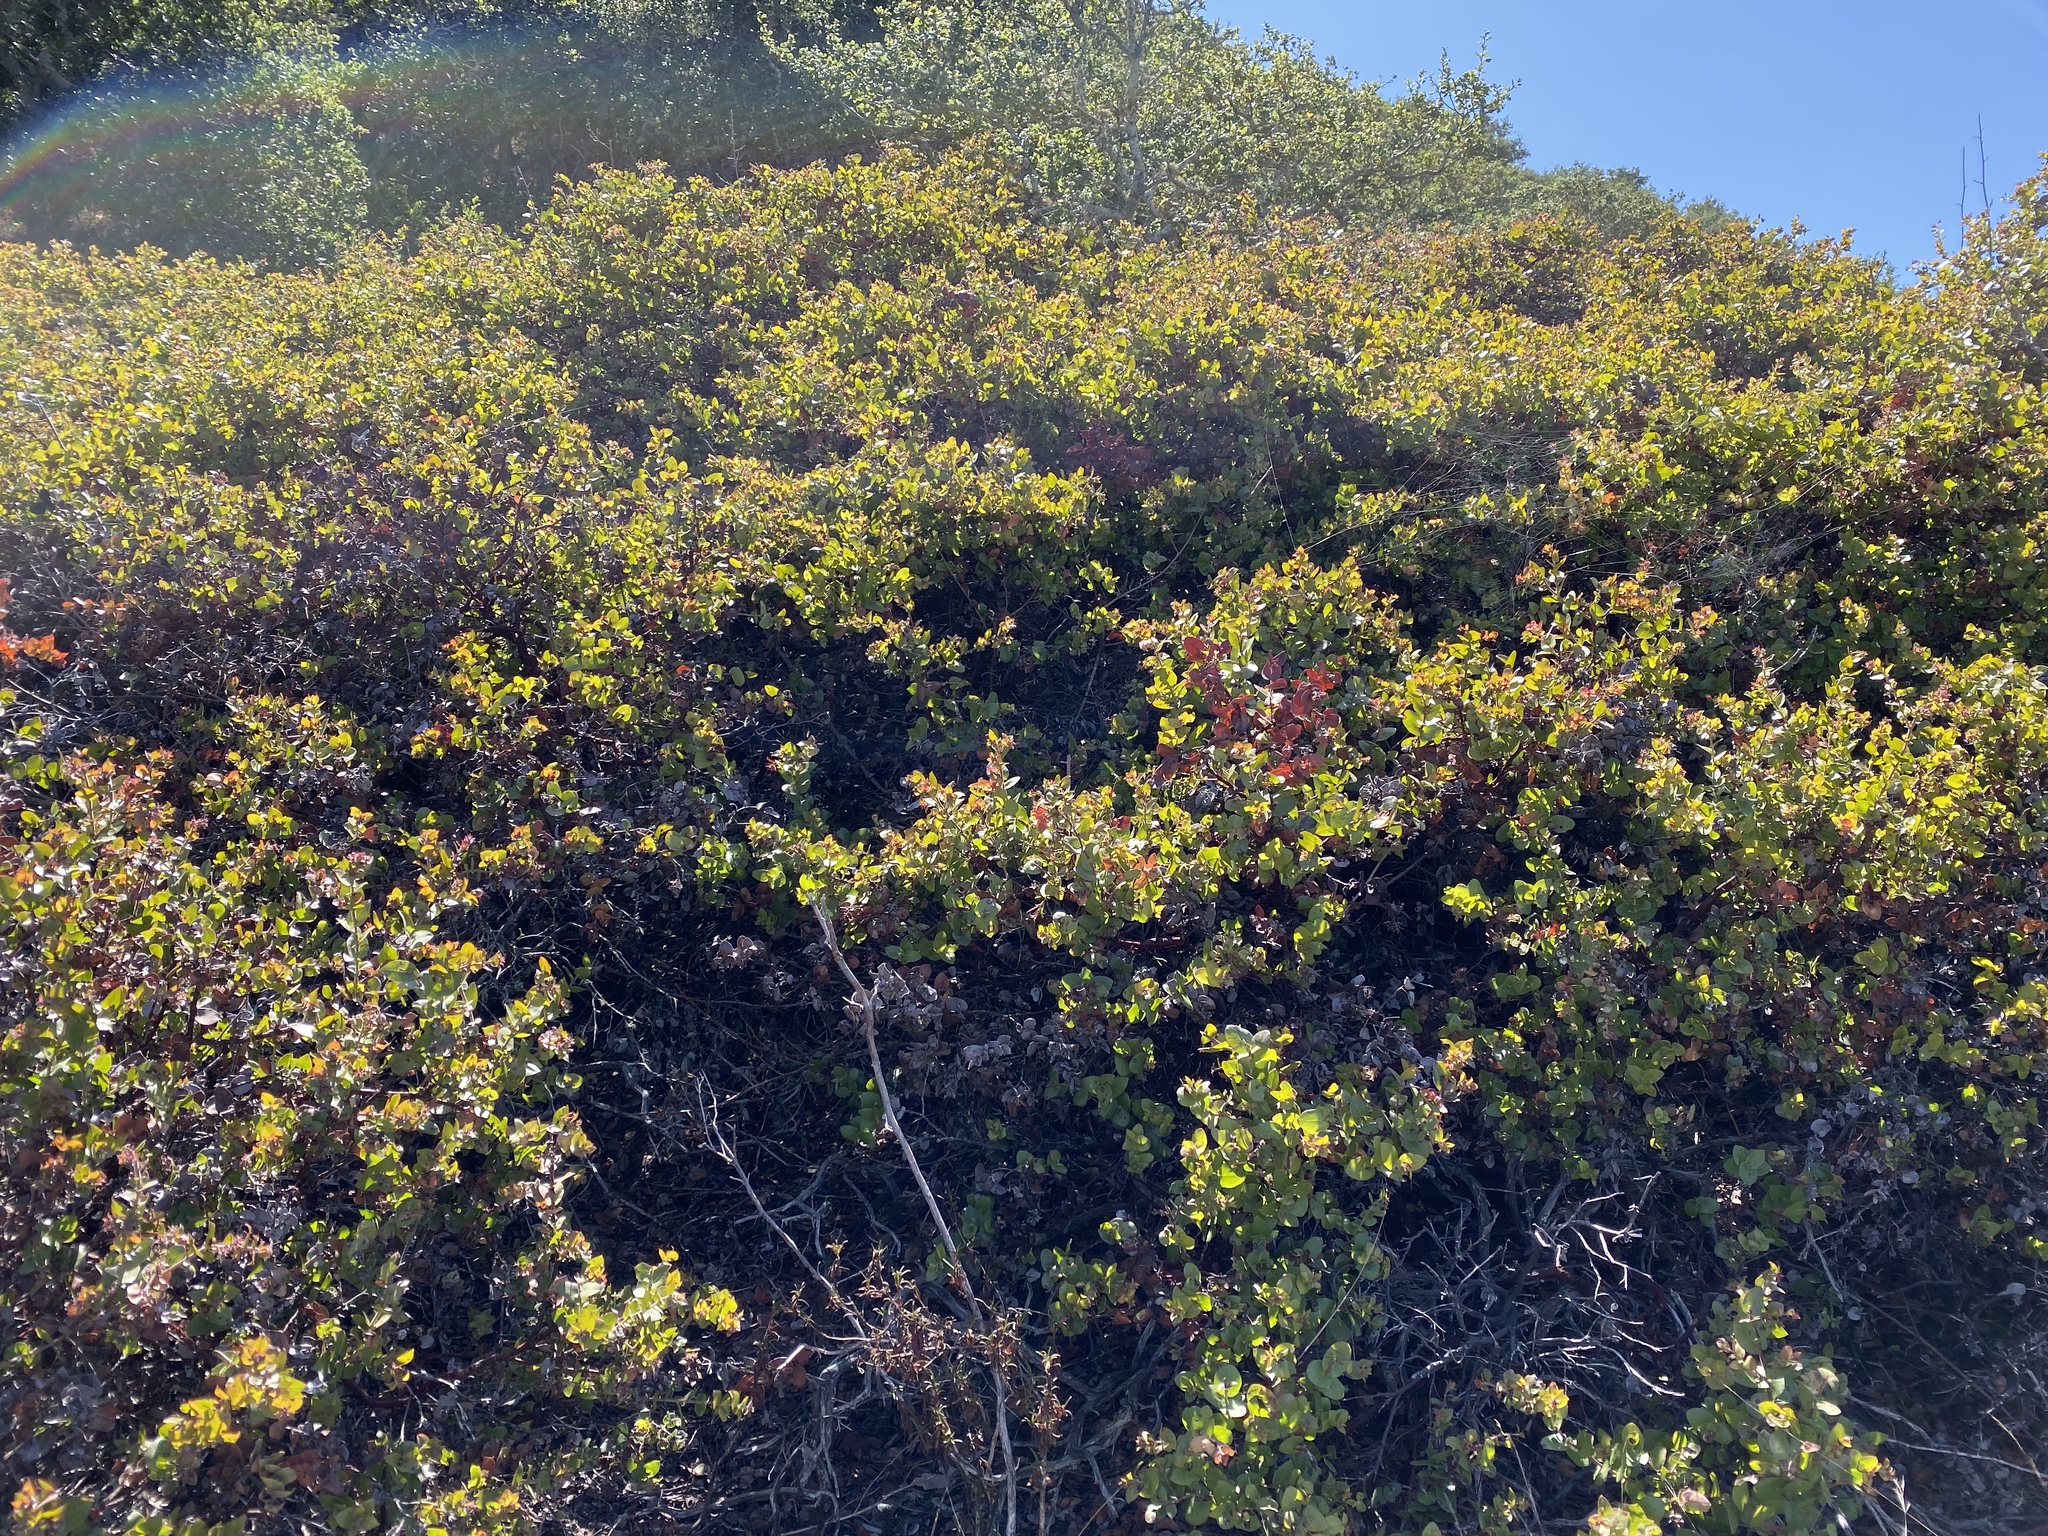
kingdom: Plantae
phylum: Tracheophyta
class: Magnoliopsida
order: Ericales
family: Ericaceae
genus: Arctostaphylos
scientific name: Arctostaphylos osoensis
